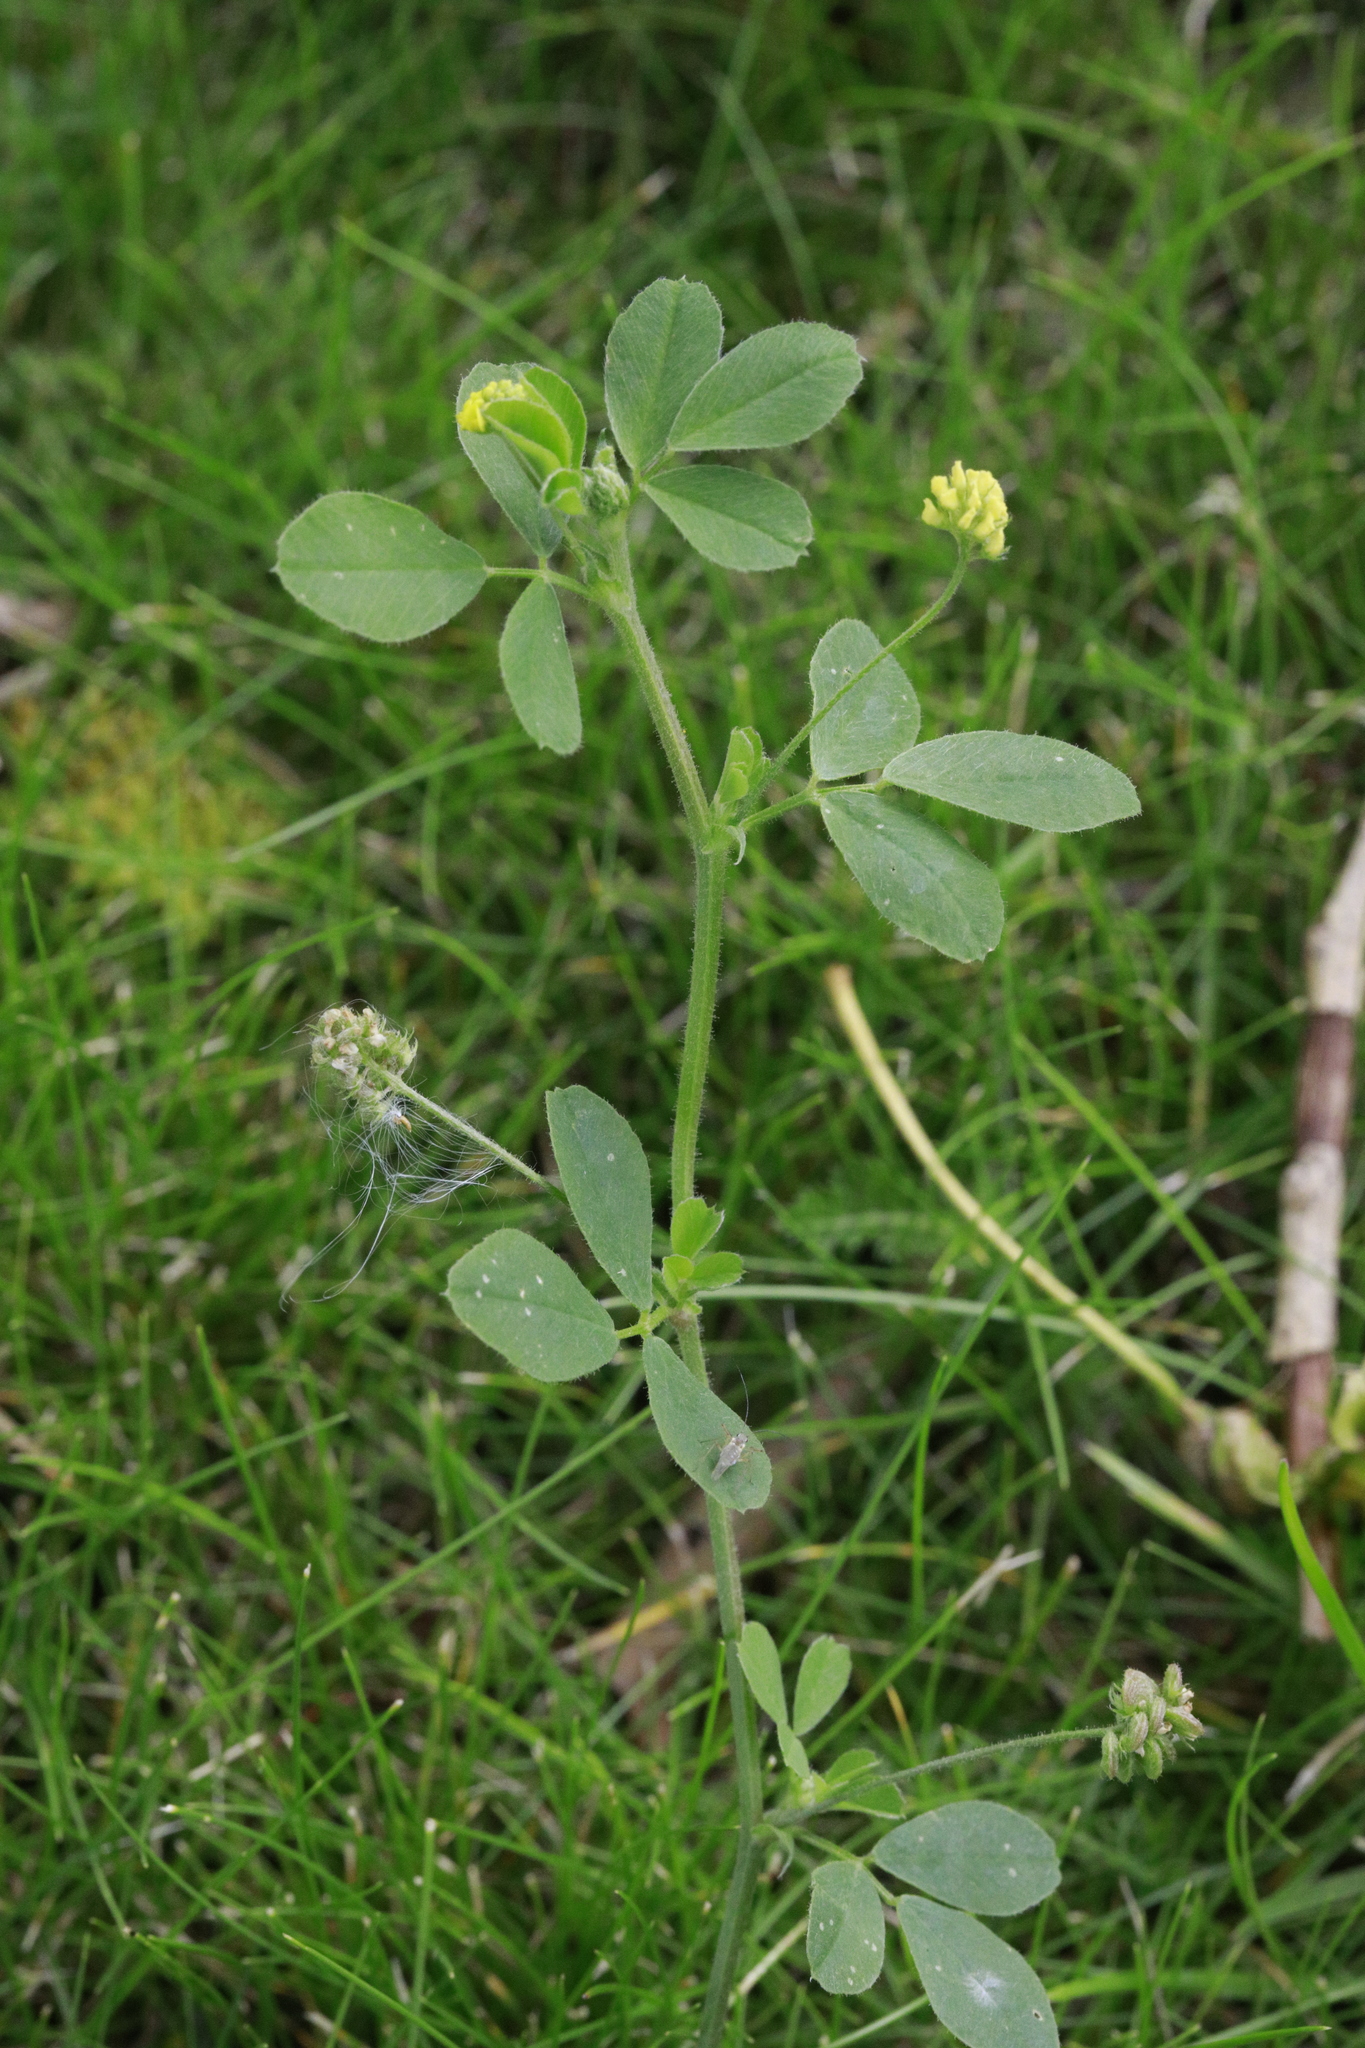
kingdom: Plantae
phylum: Tracheophyta
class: Magnoliopsida
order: Fabales
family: Fabaceae
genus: Medicago
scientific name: Medicago lupulina
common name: Black medick
